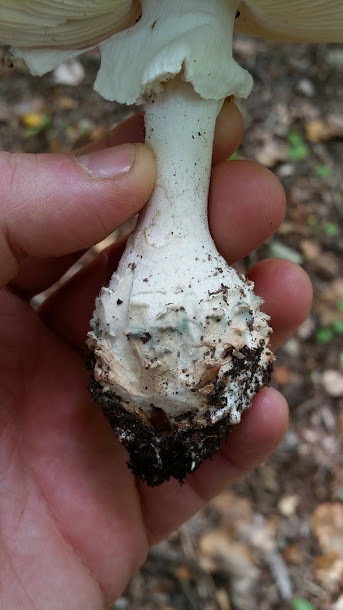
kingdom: Fungi
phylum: Basidiomycota
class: Agaricomycetes
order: Agaricales
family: Amanitaceae
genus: Amanita
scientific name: Amanita cokeri
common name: Coker's amanita
